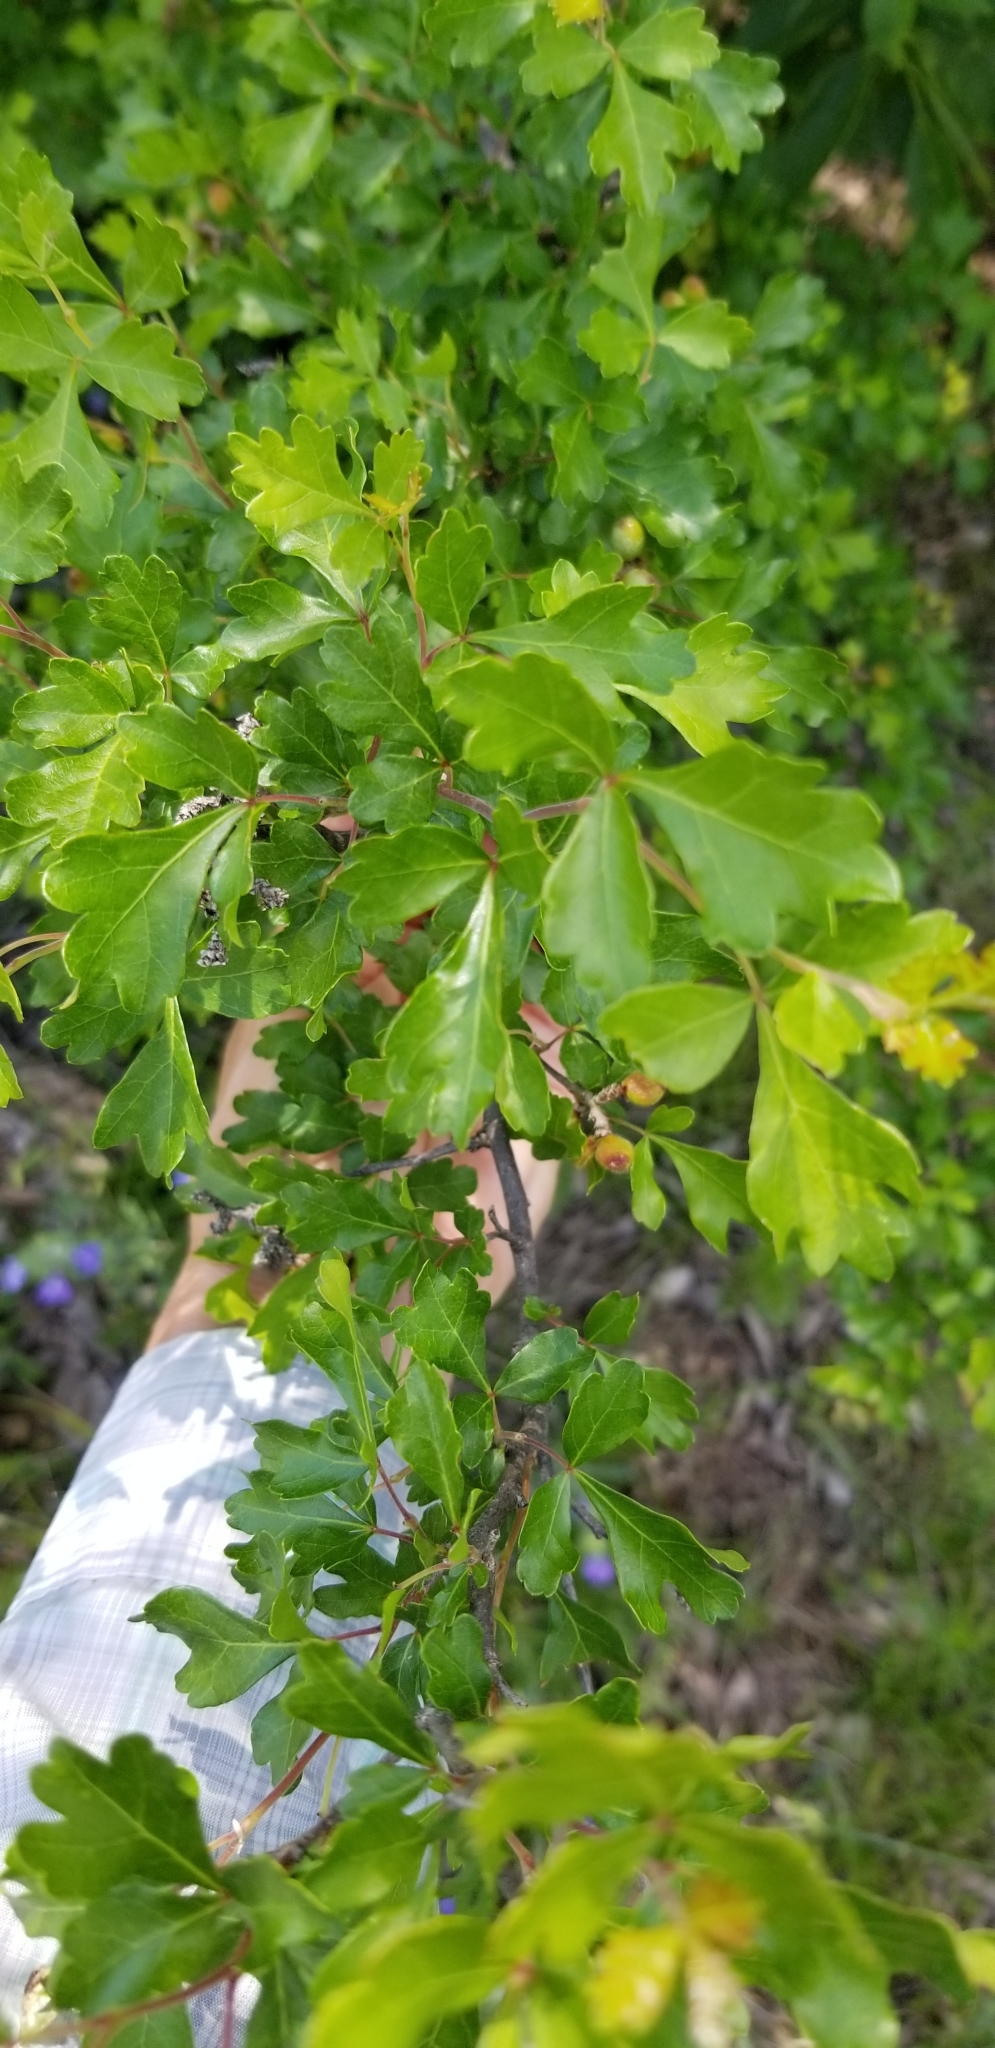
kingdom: Plantae
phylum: Tracheophyta
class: Magnoliopsida
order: Sapindales
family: Anacardiaceae
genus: Rhus
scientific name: Rhus aromatica
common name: Aromatic sumac
